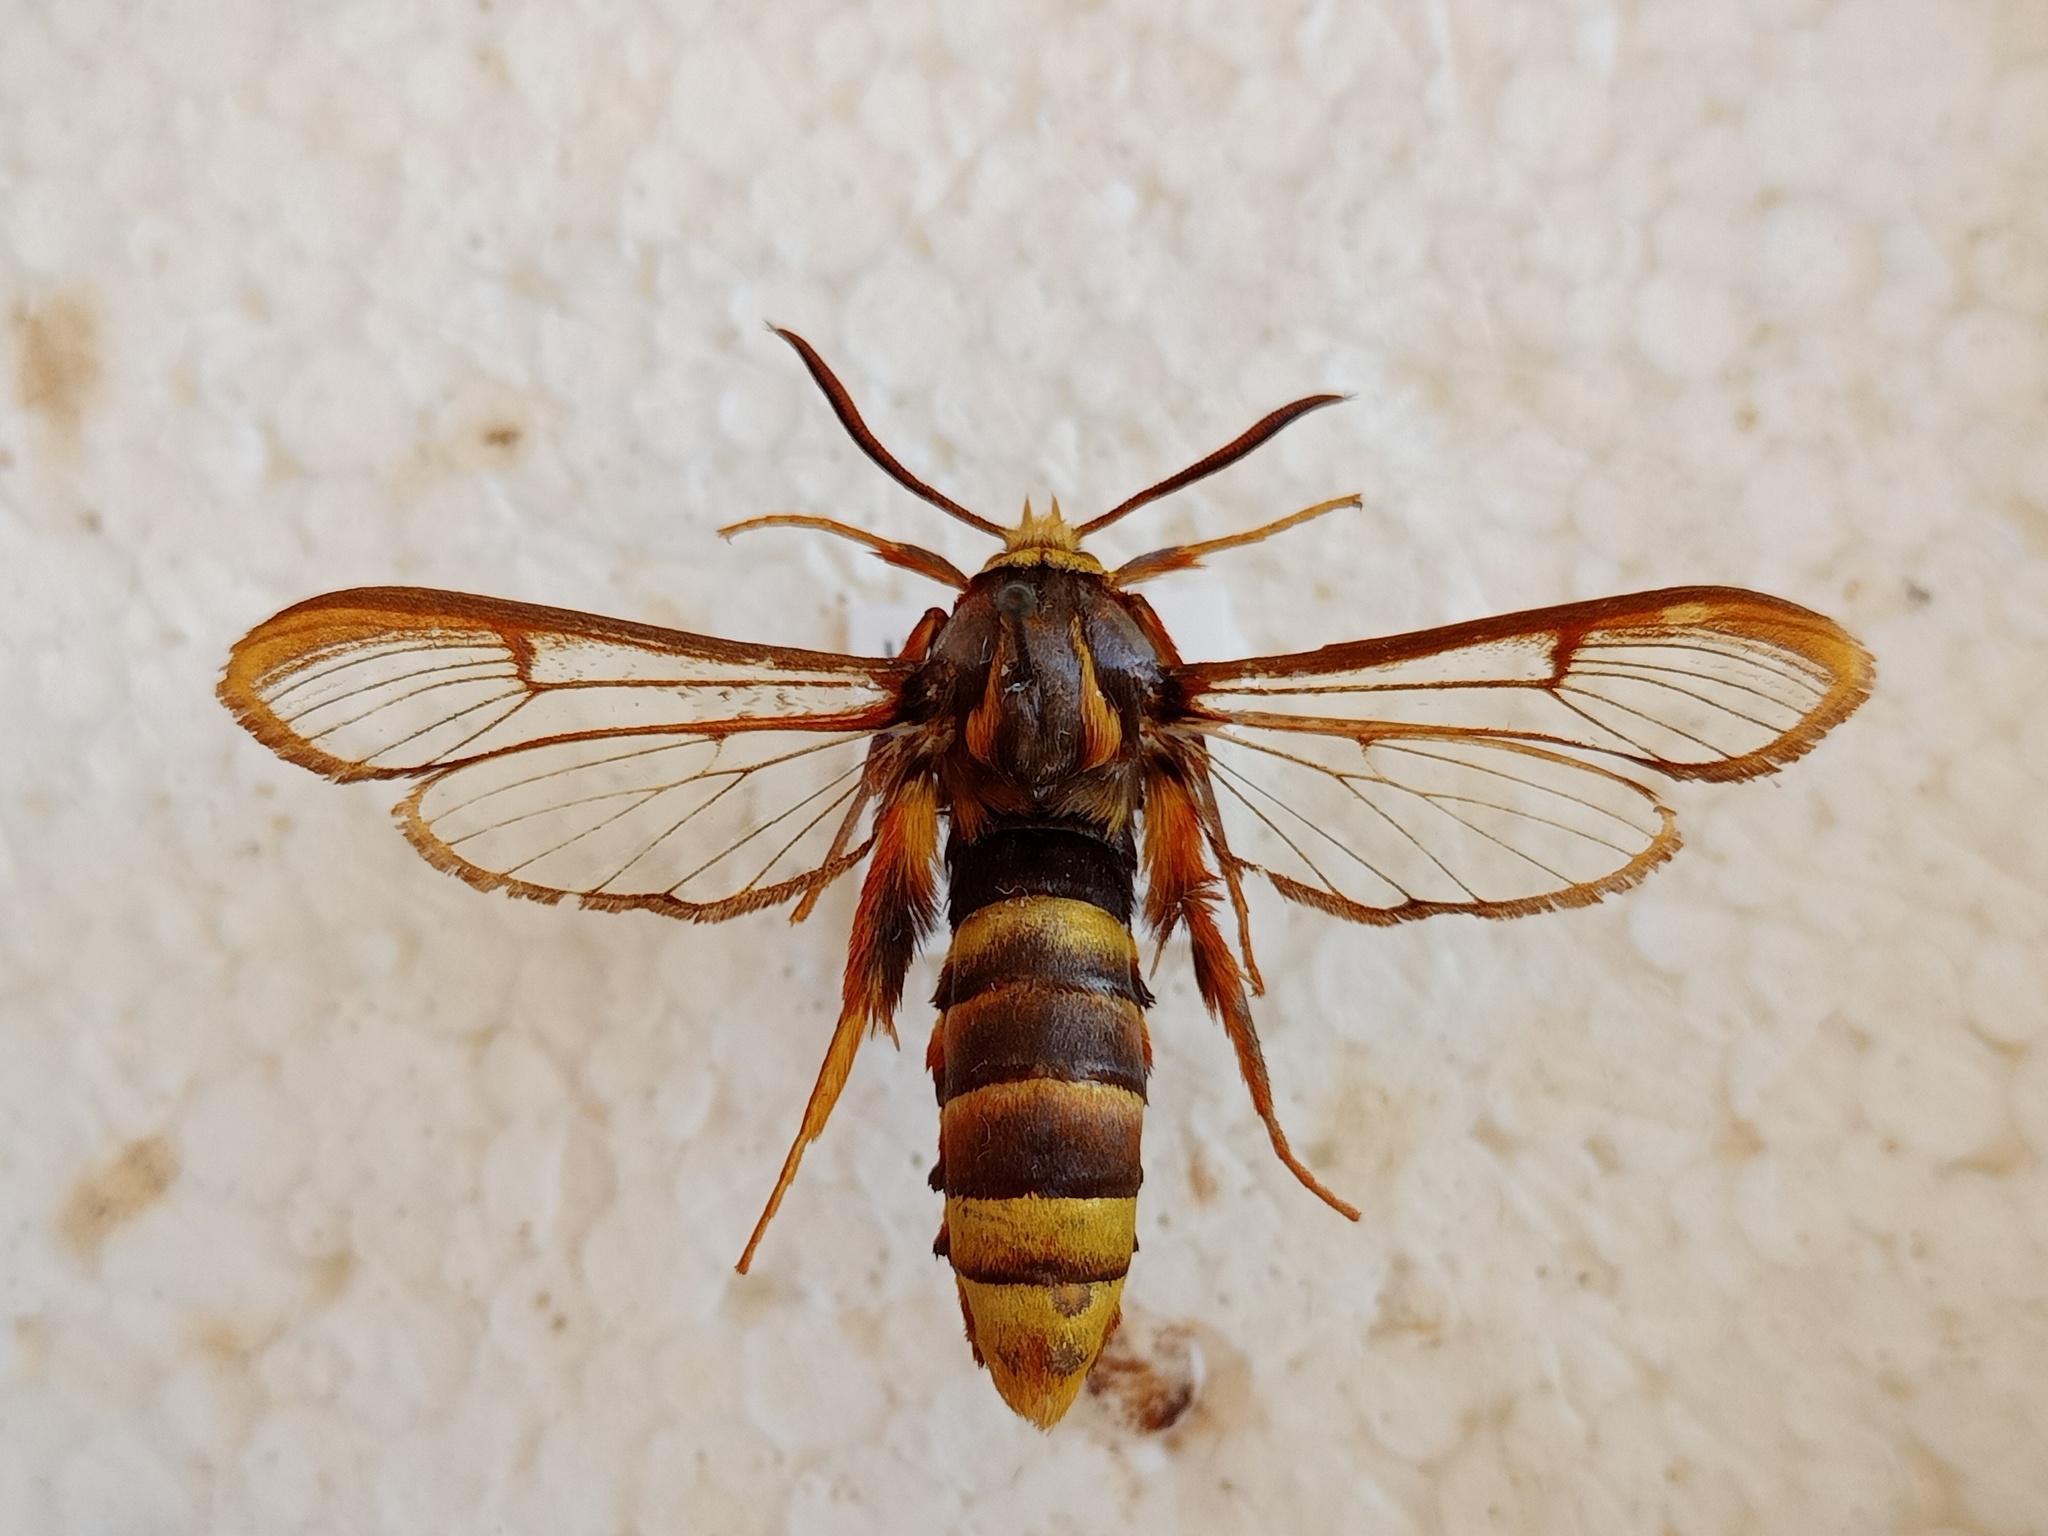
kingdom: Animalia
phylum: Arthropoda
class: Insecta
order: Lepidoptera
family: Sesiidae
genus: Sesia
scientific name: Sesia yezoensis
